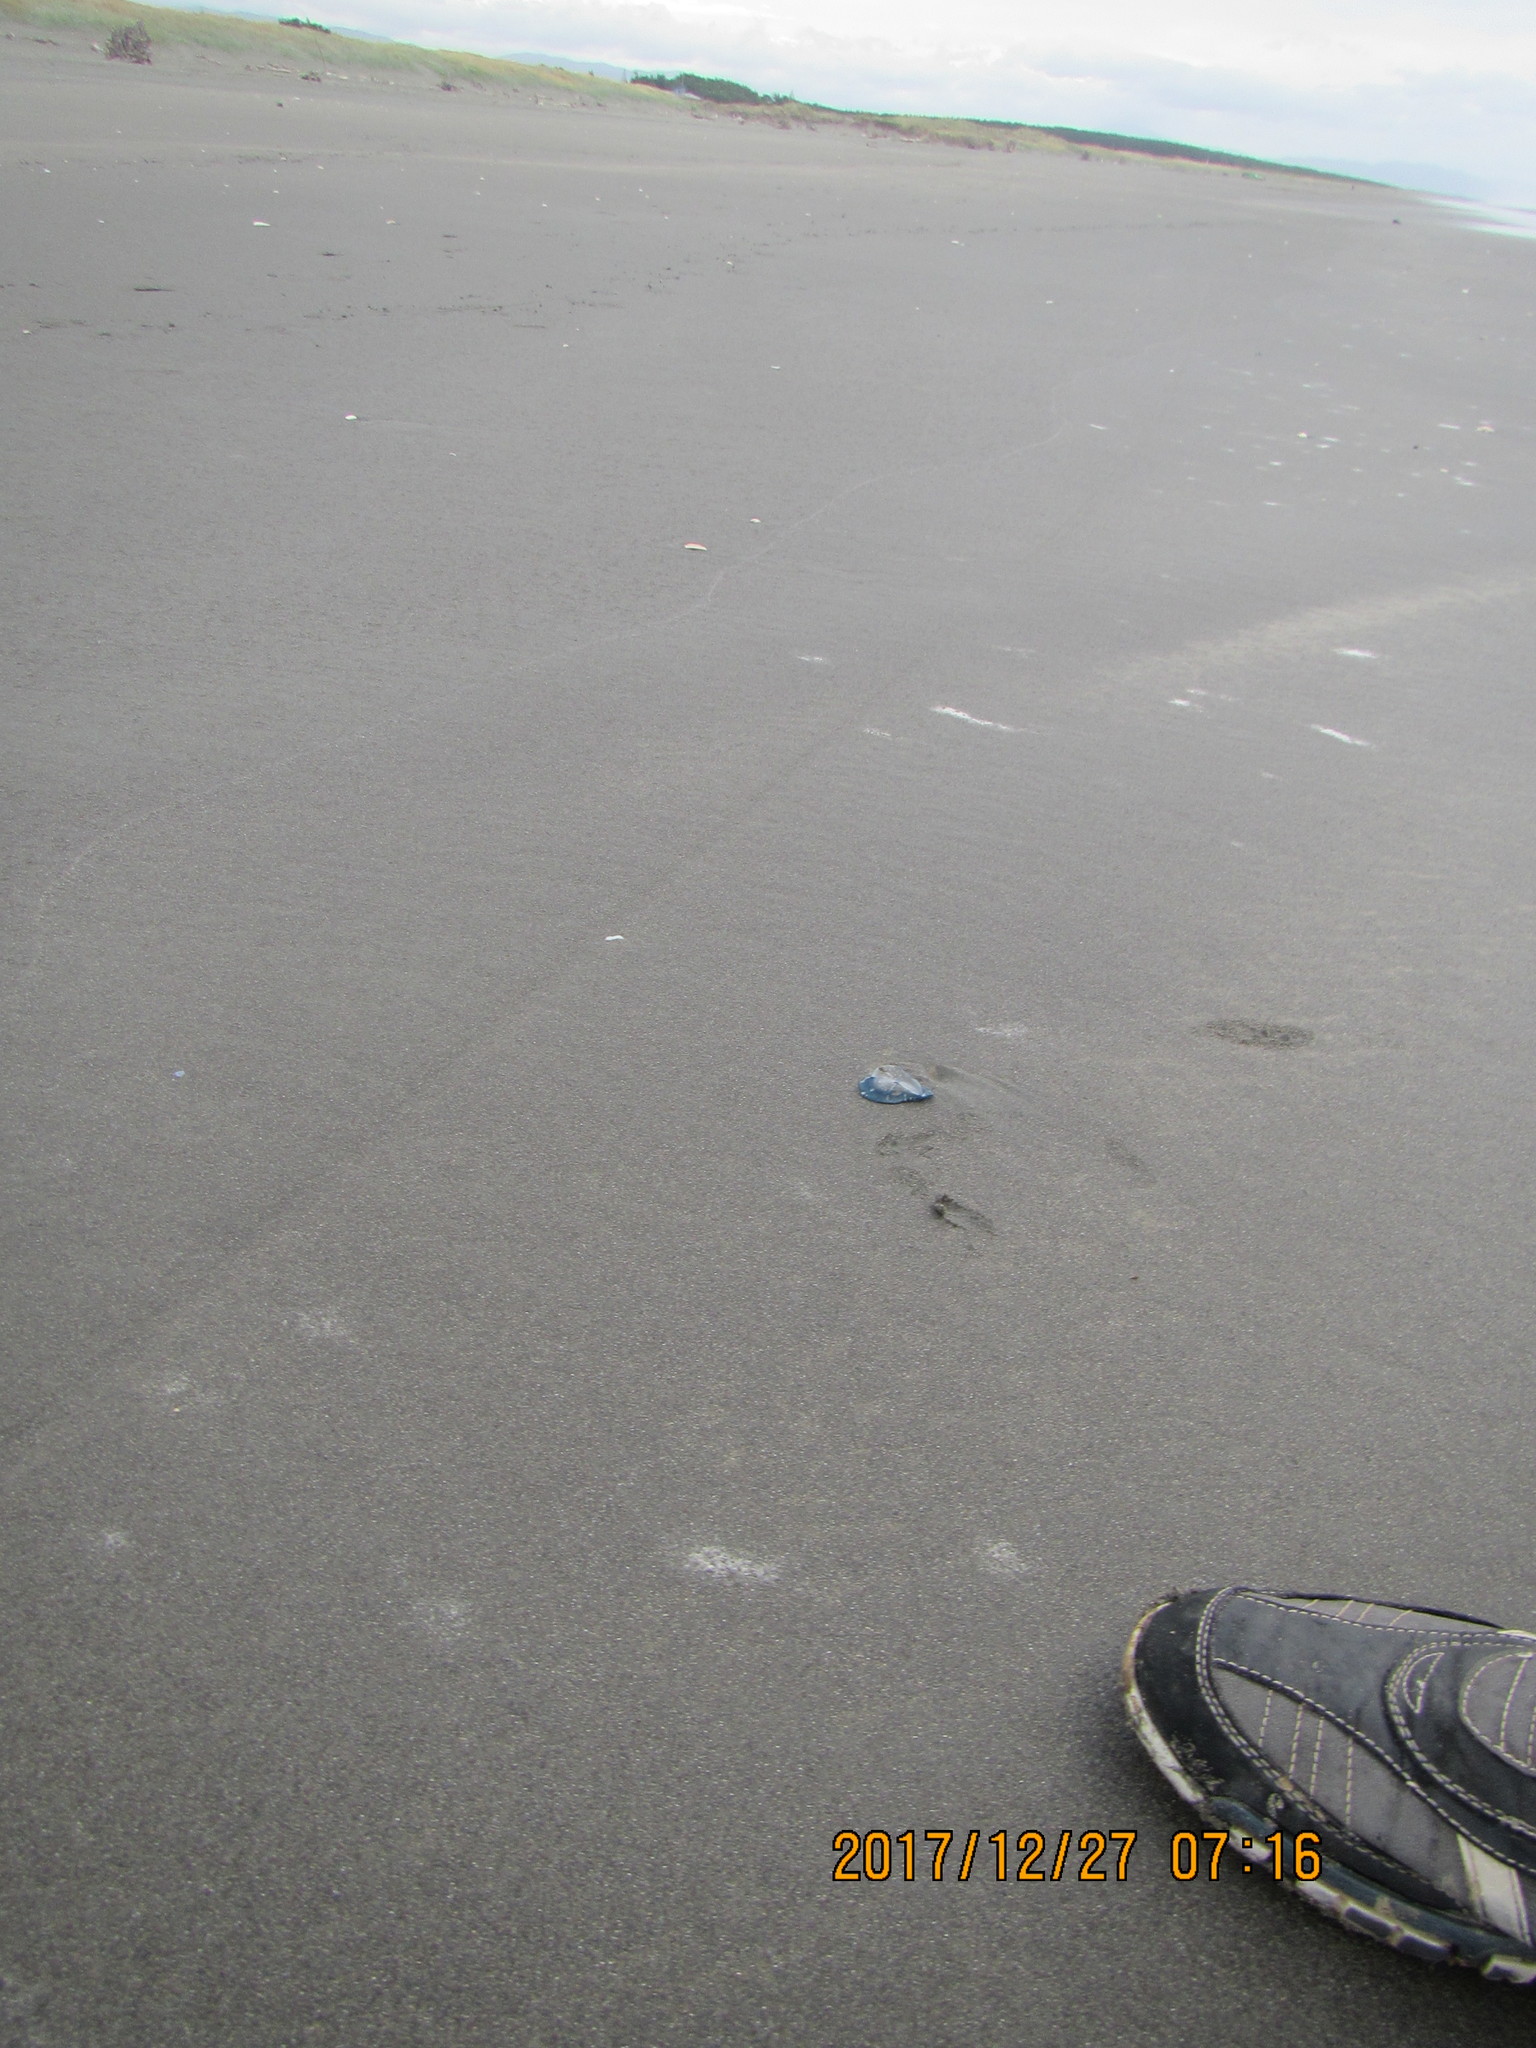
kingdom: Animalia
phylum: Cnidaria
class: Hydrozoa
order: Anthoathecata
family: Porpitidae
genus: Velella
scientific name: Velella velella
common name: By-the-wind-sailor
